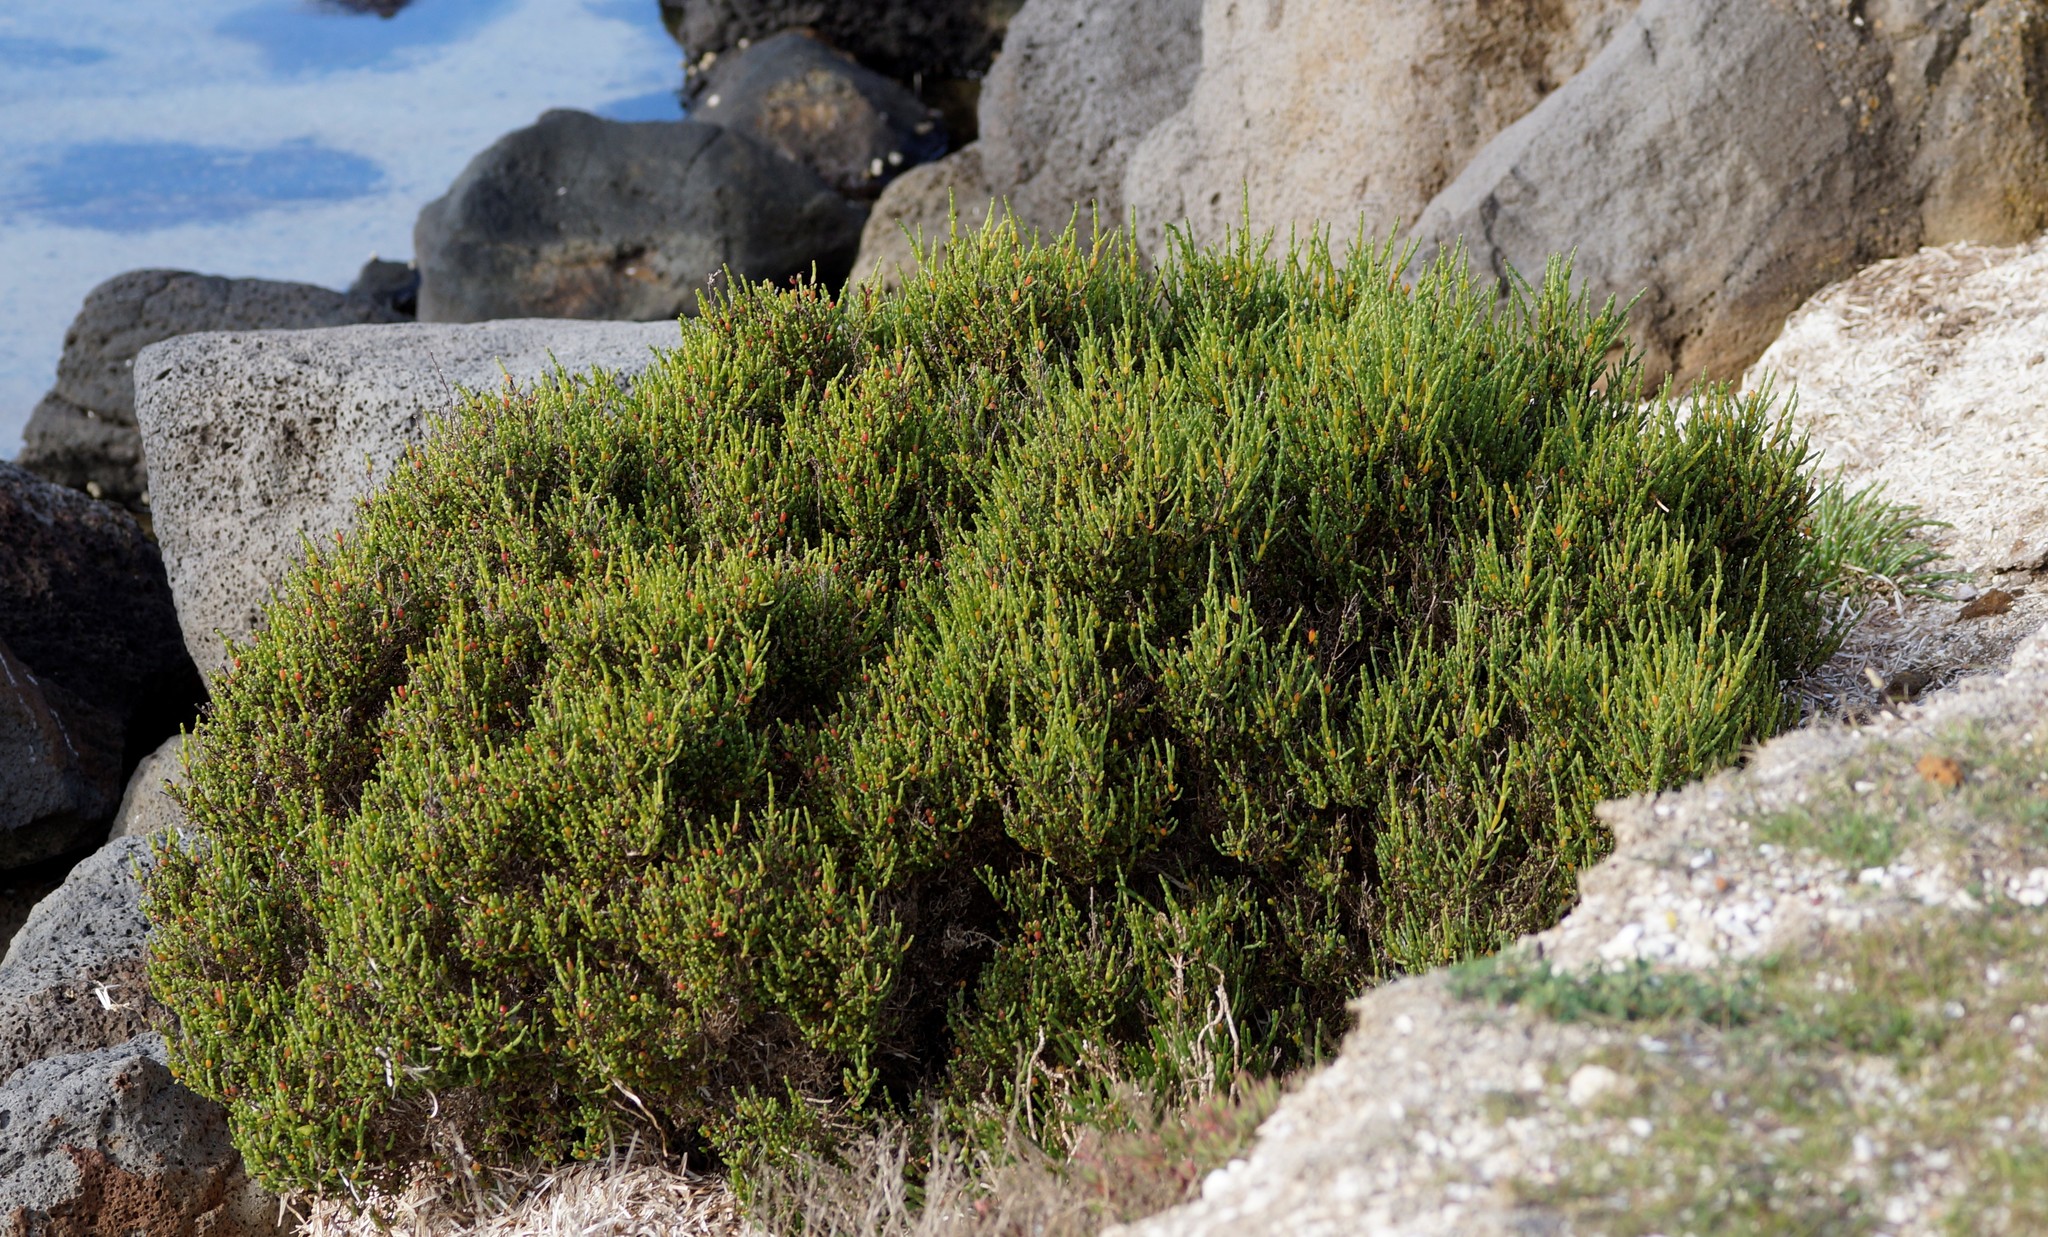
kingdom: Plantae
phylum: Tracheophyta
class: Magnoliopsida
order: Caryophyllales
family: Amaranthaceae
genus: Tecticornia
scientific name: Tecticornia arbuscula
